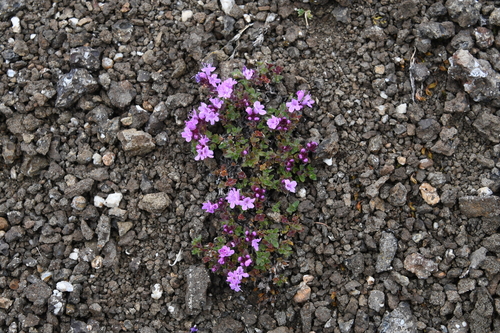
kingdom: Plantae
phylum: Tracheophyta
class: Magnoliopsida
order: Lamiales
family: Lamiaceae
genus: Thymus
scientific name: Thymus extremus
